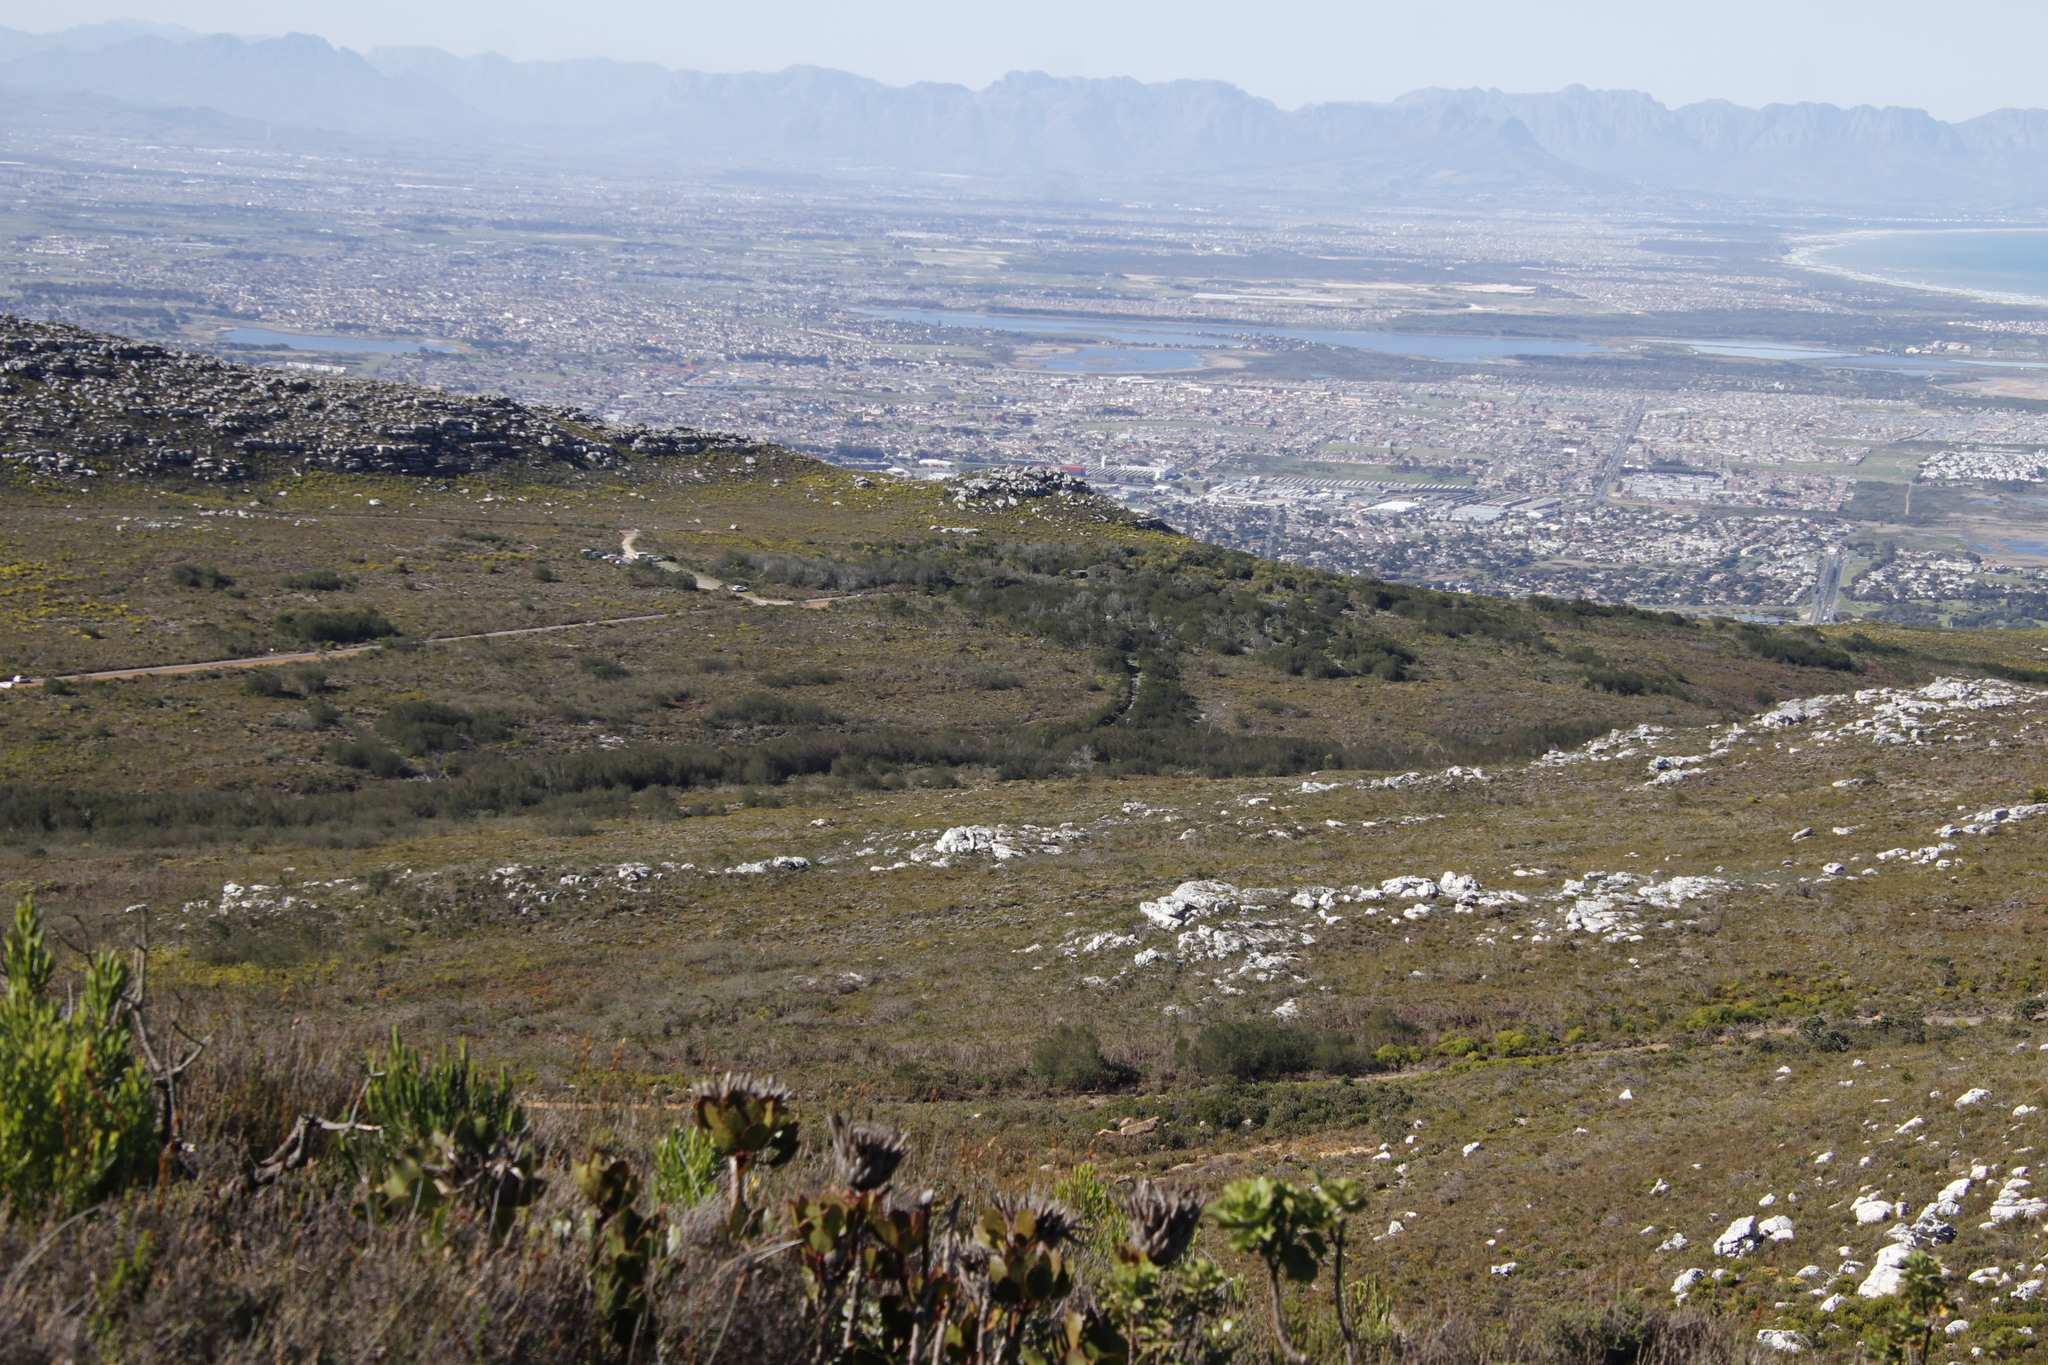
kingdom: Plantae
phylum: Tracheophyta
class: Magnoliopsida
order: Fabales
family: Fabaceae
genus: Virgilia
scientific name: Virgilia oroboides
